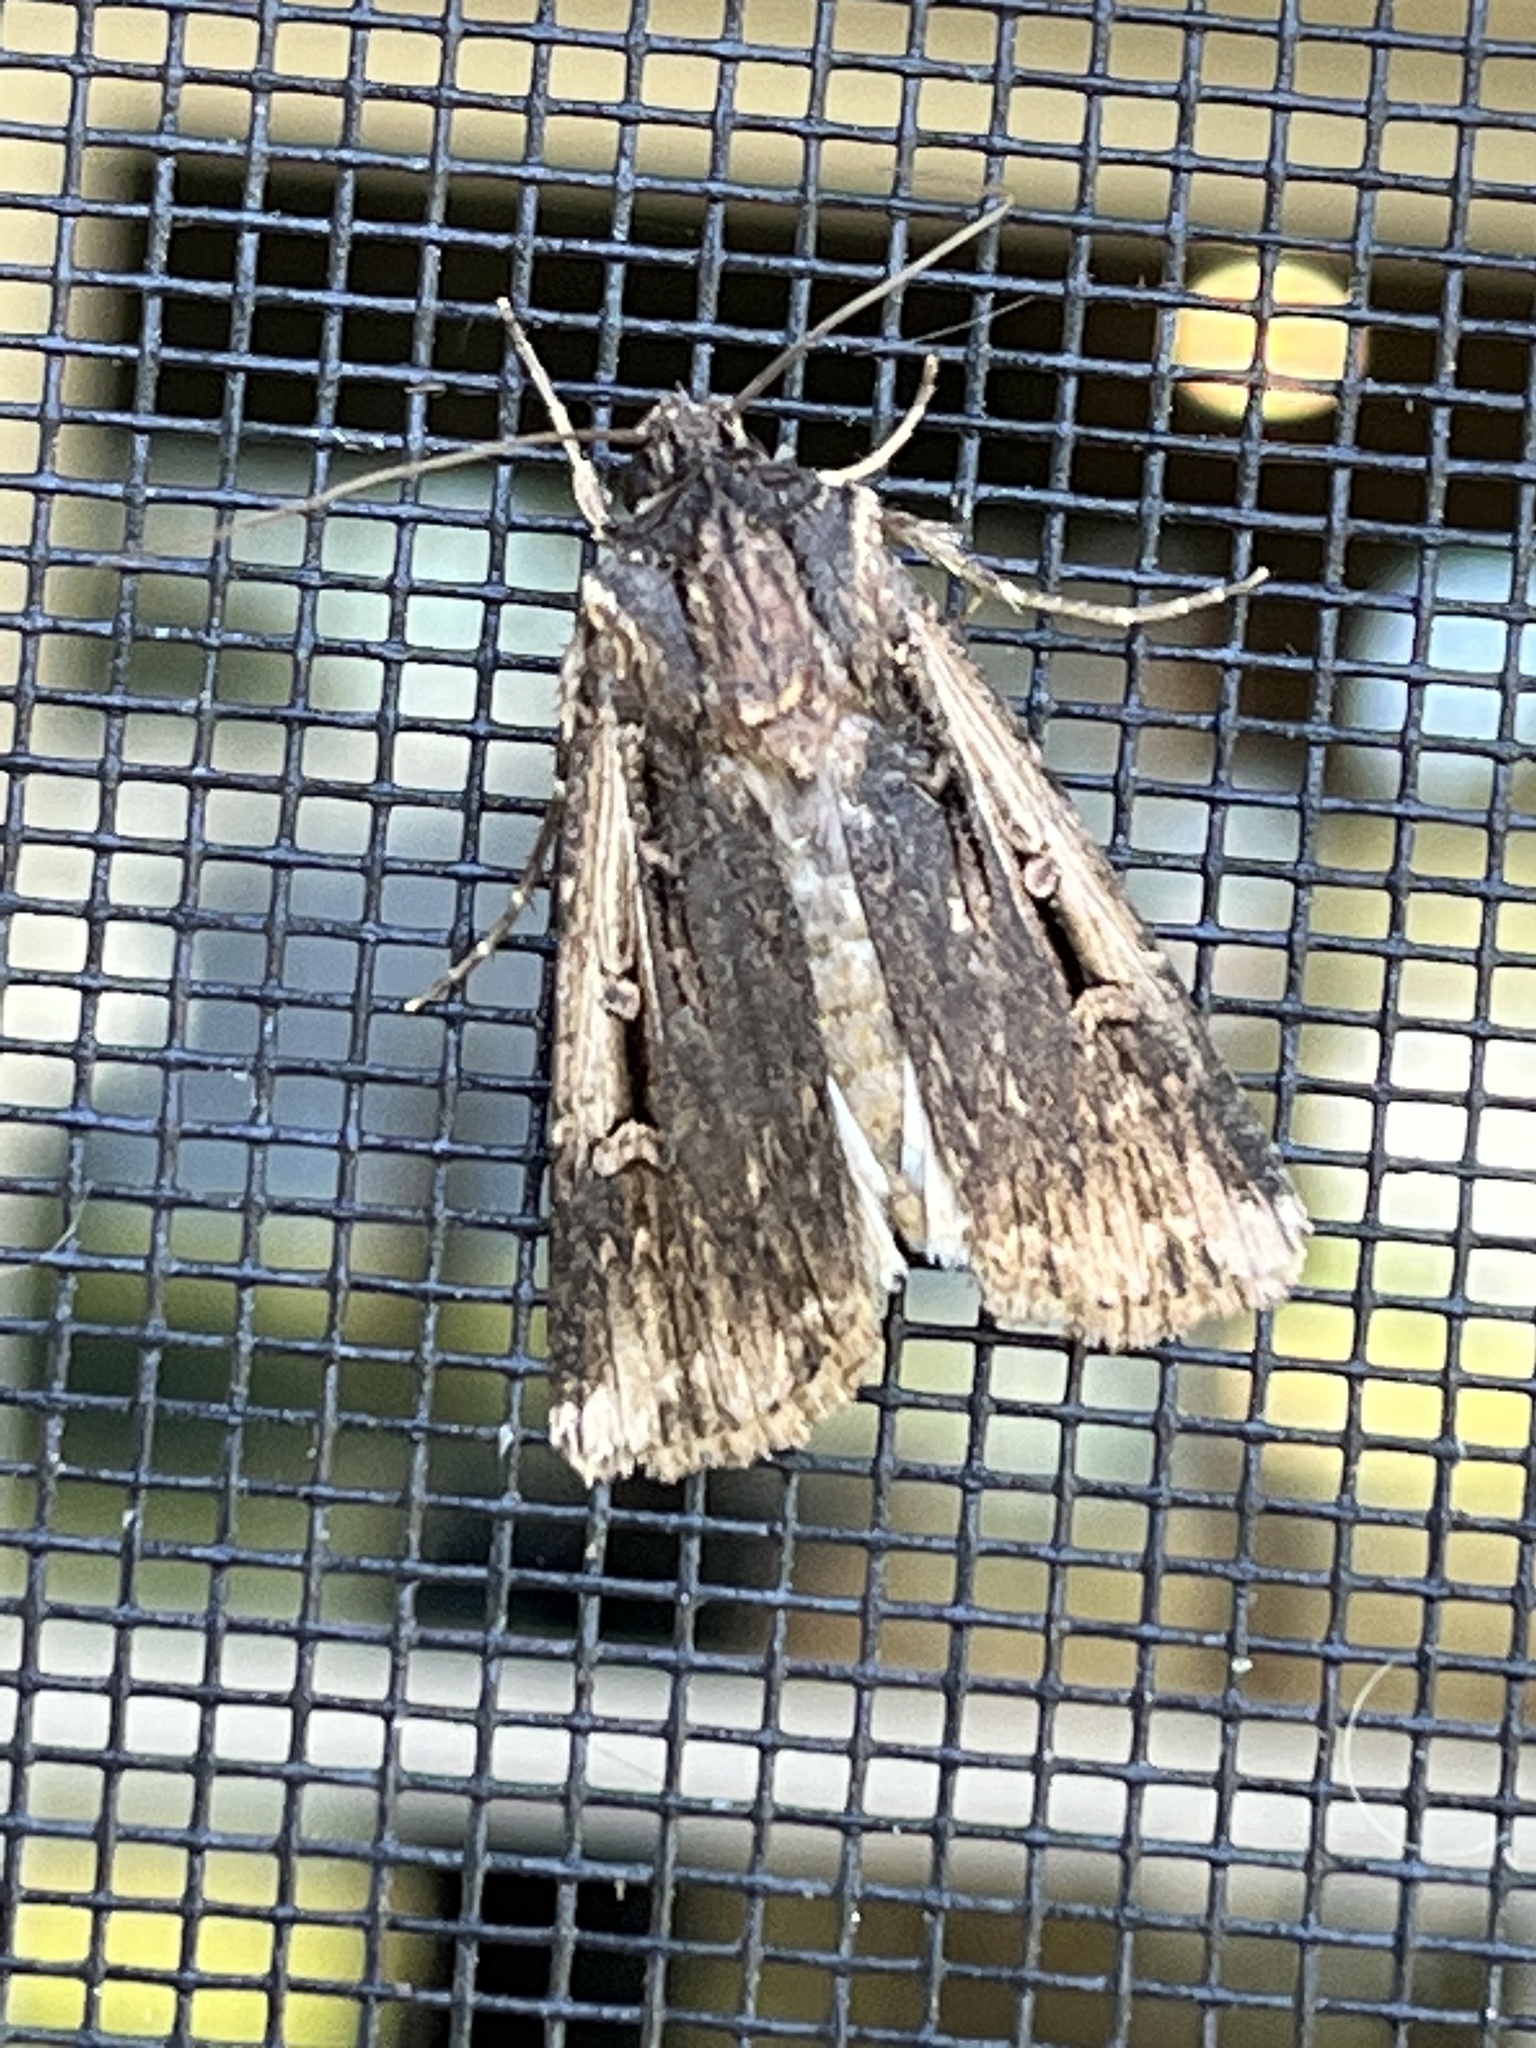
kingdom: Animalia
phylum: Arthropoda
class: Insecta
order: Lepidoptera
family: Noctuidae
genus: Feltia
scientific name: Feltia subterranea
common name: Granulate cutworm
